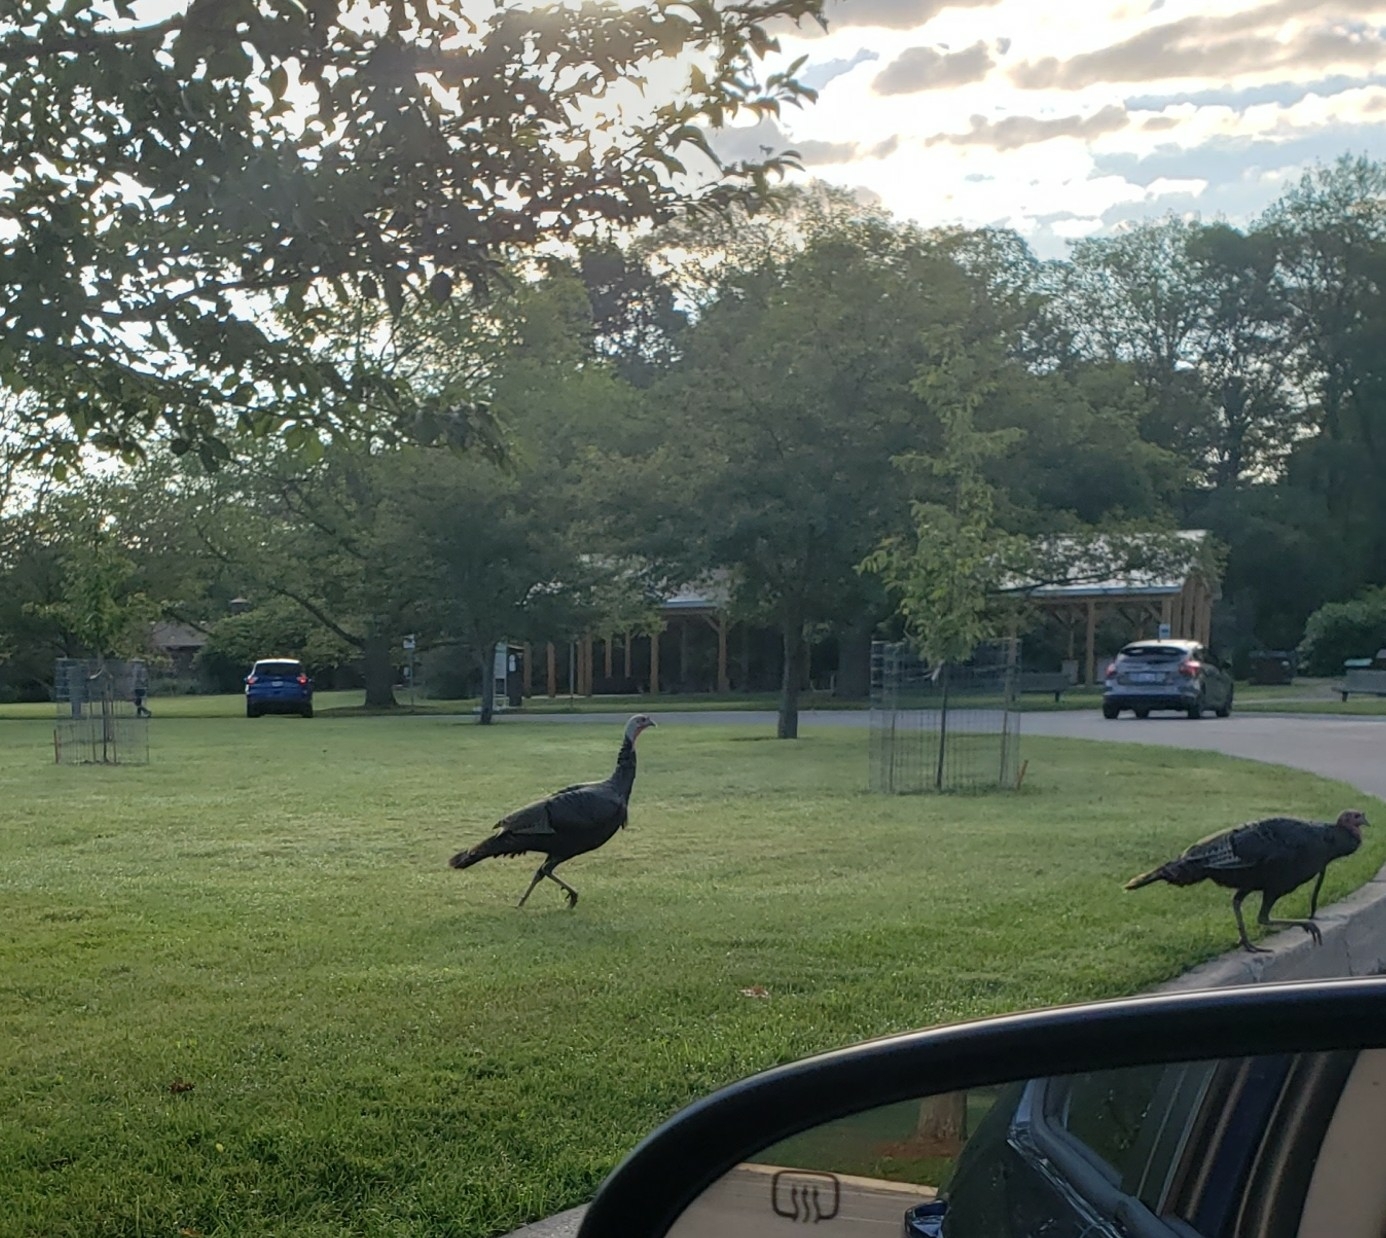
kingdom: Animalia
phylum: Chordata
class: Aves
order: Galliformes
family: Phasianidae
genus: Meleagris
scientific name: Meleagris gallopavo
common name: Wild turkey
